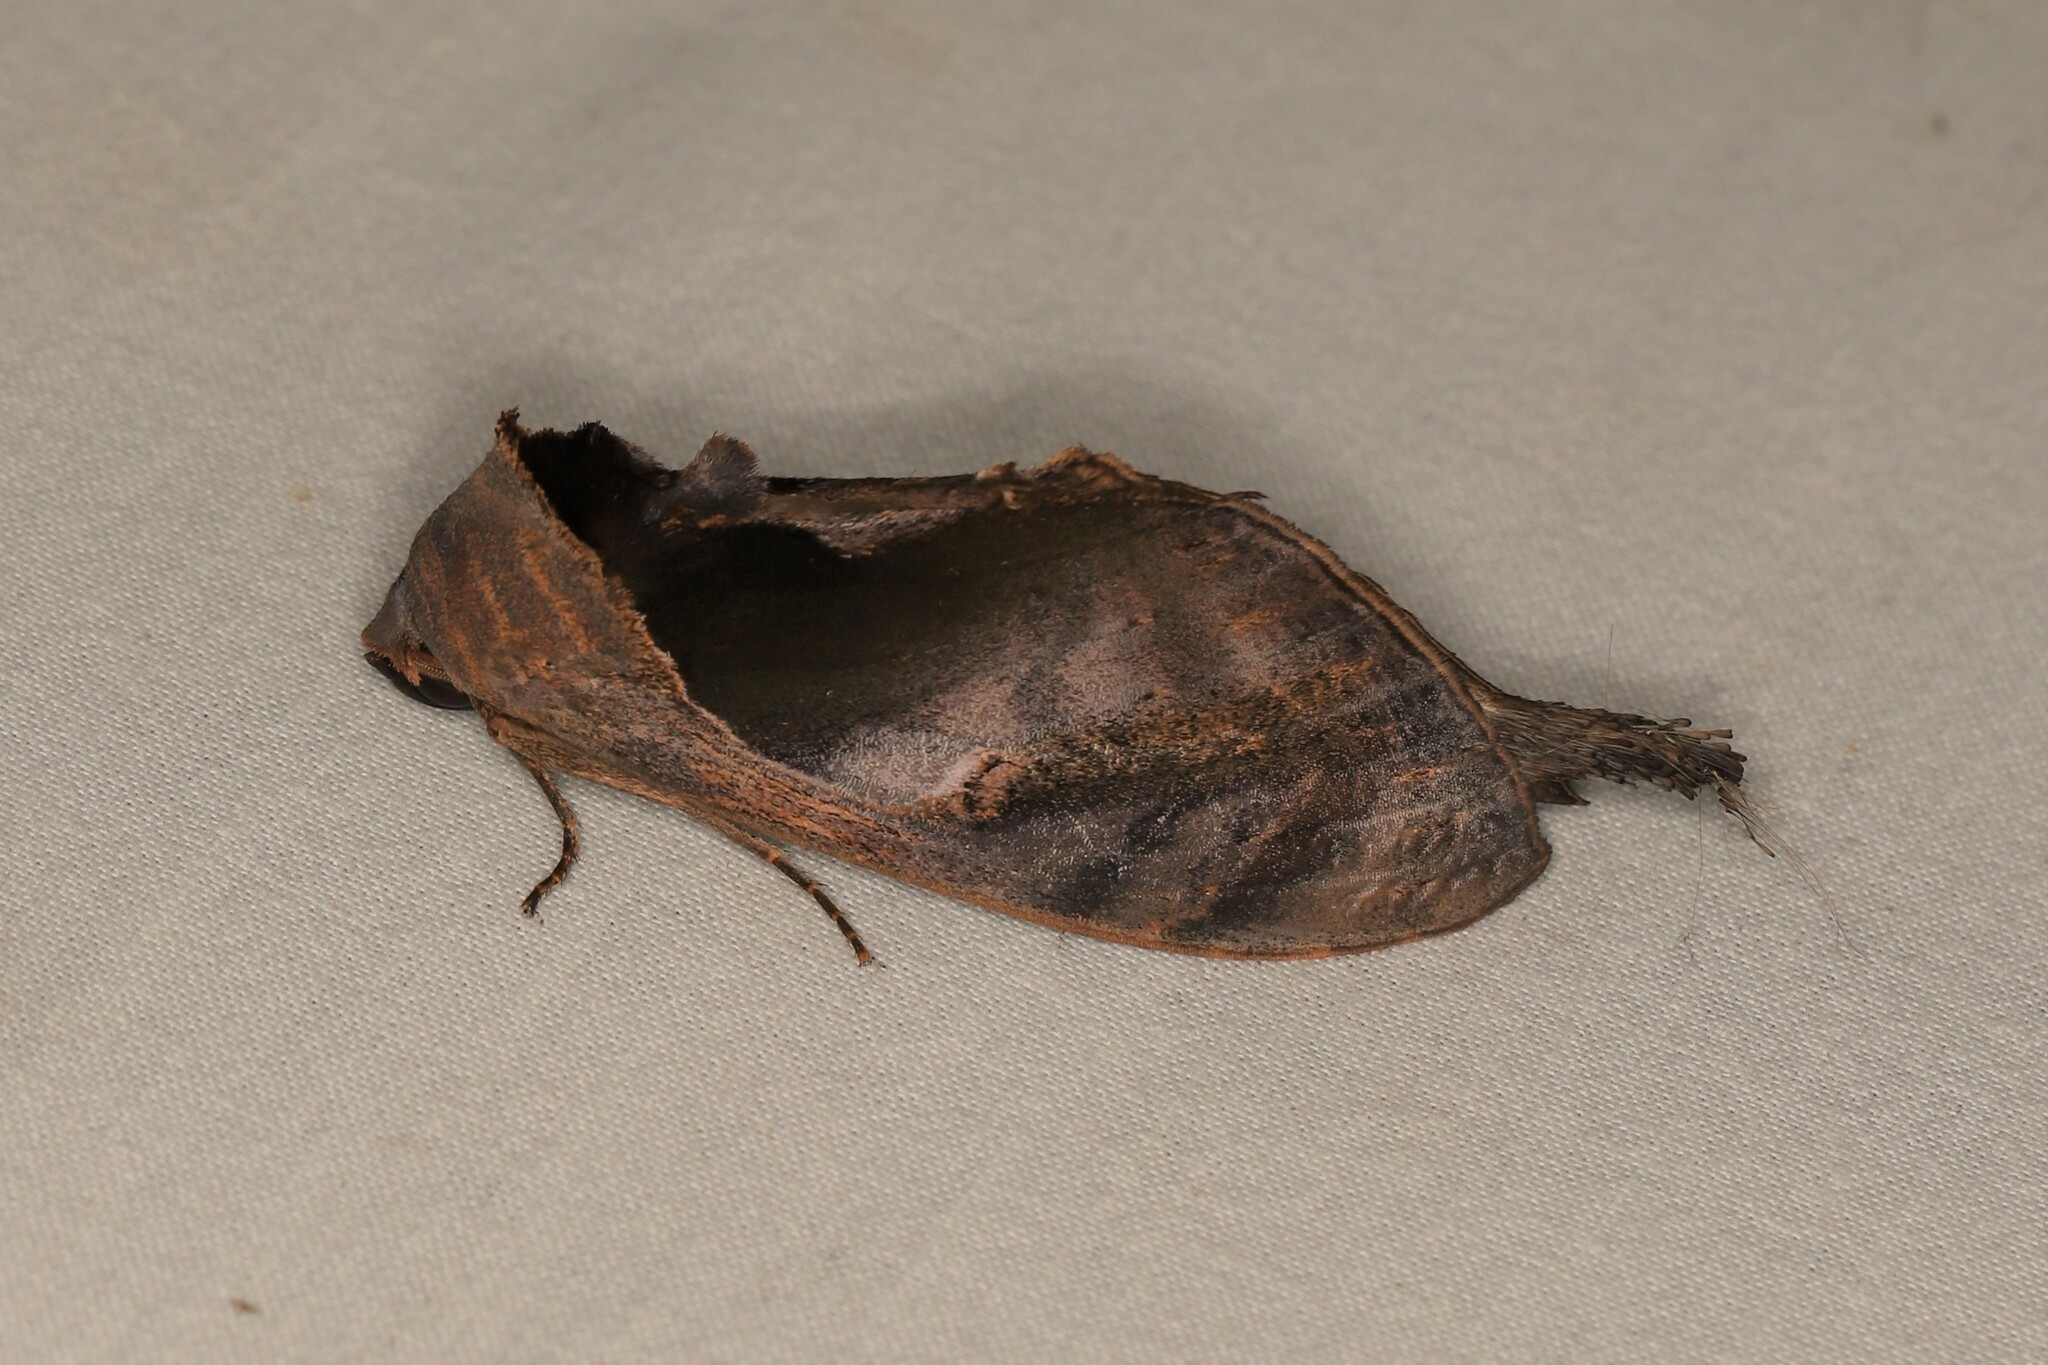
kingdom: Animalia
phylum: Arthropoda
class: Insecta
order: Lepidoptera
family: Notodontidae
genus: Crinodes
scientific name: Crinodes
